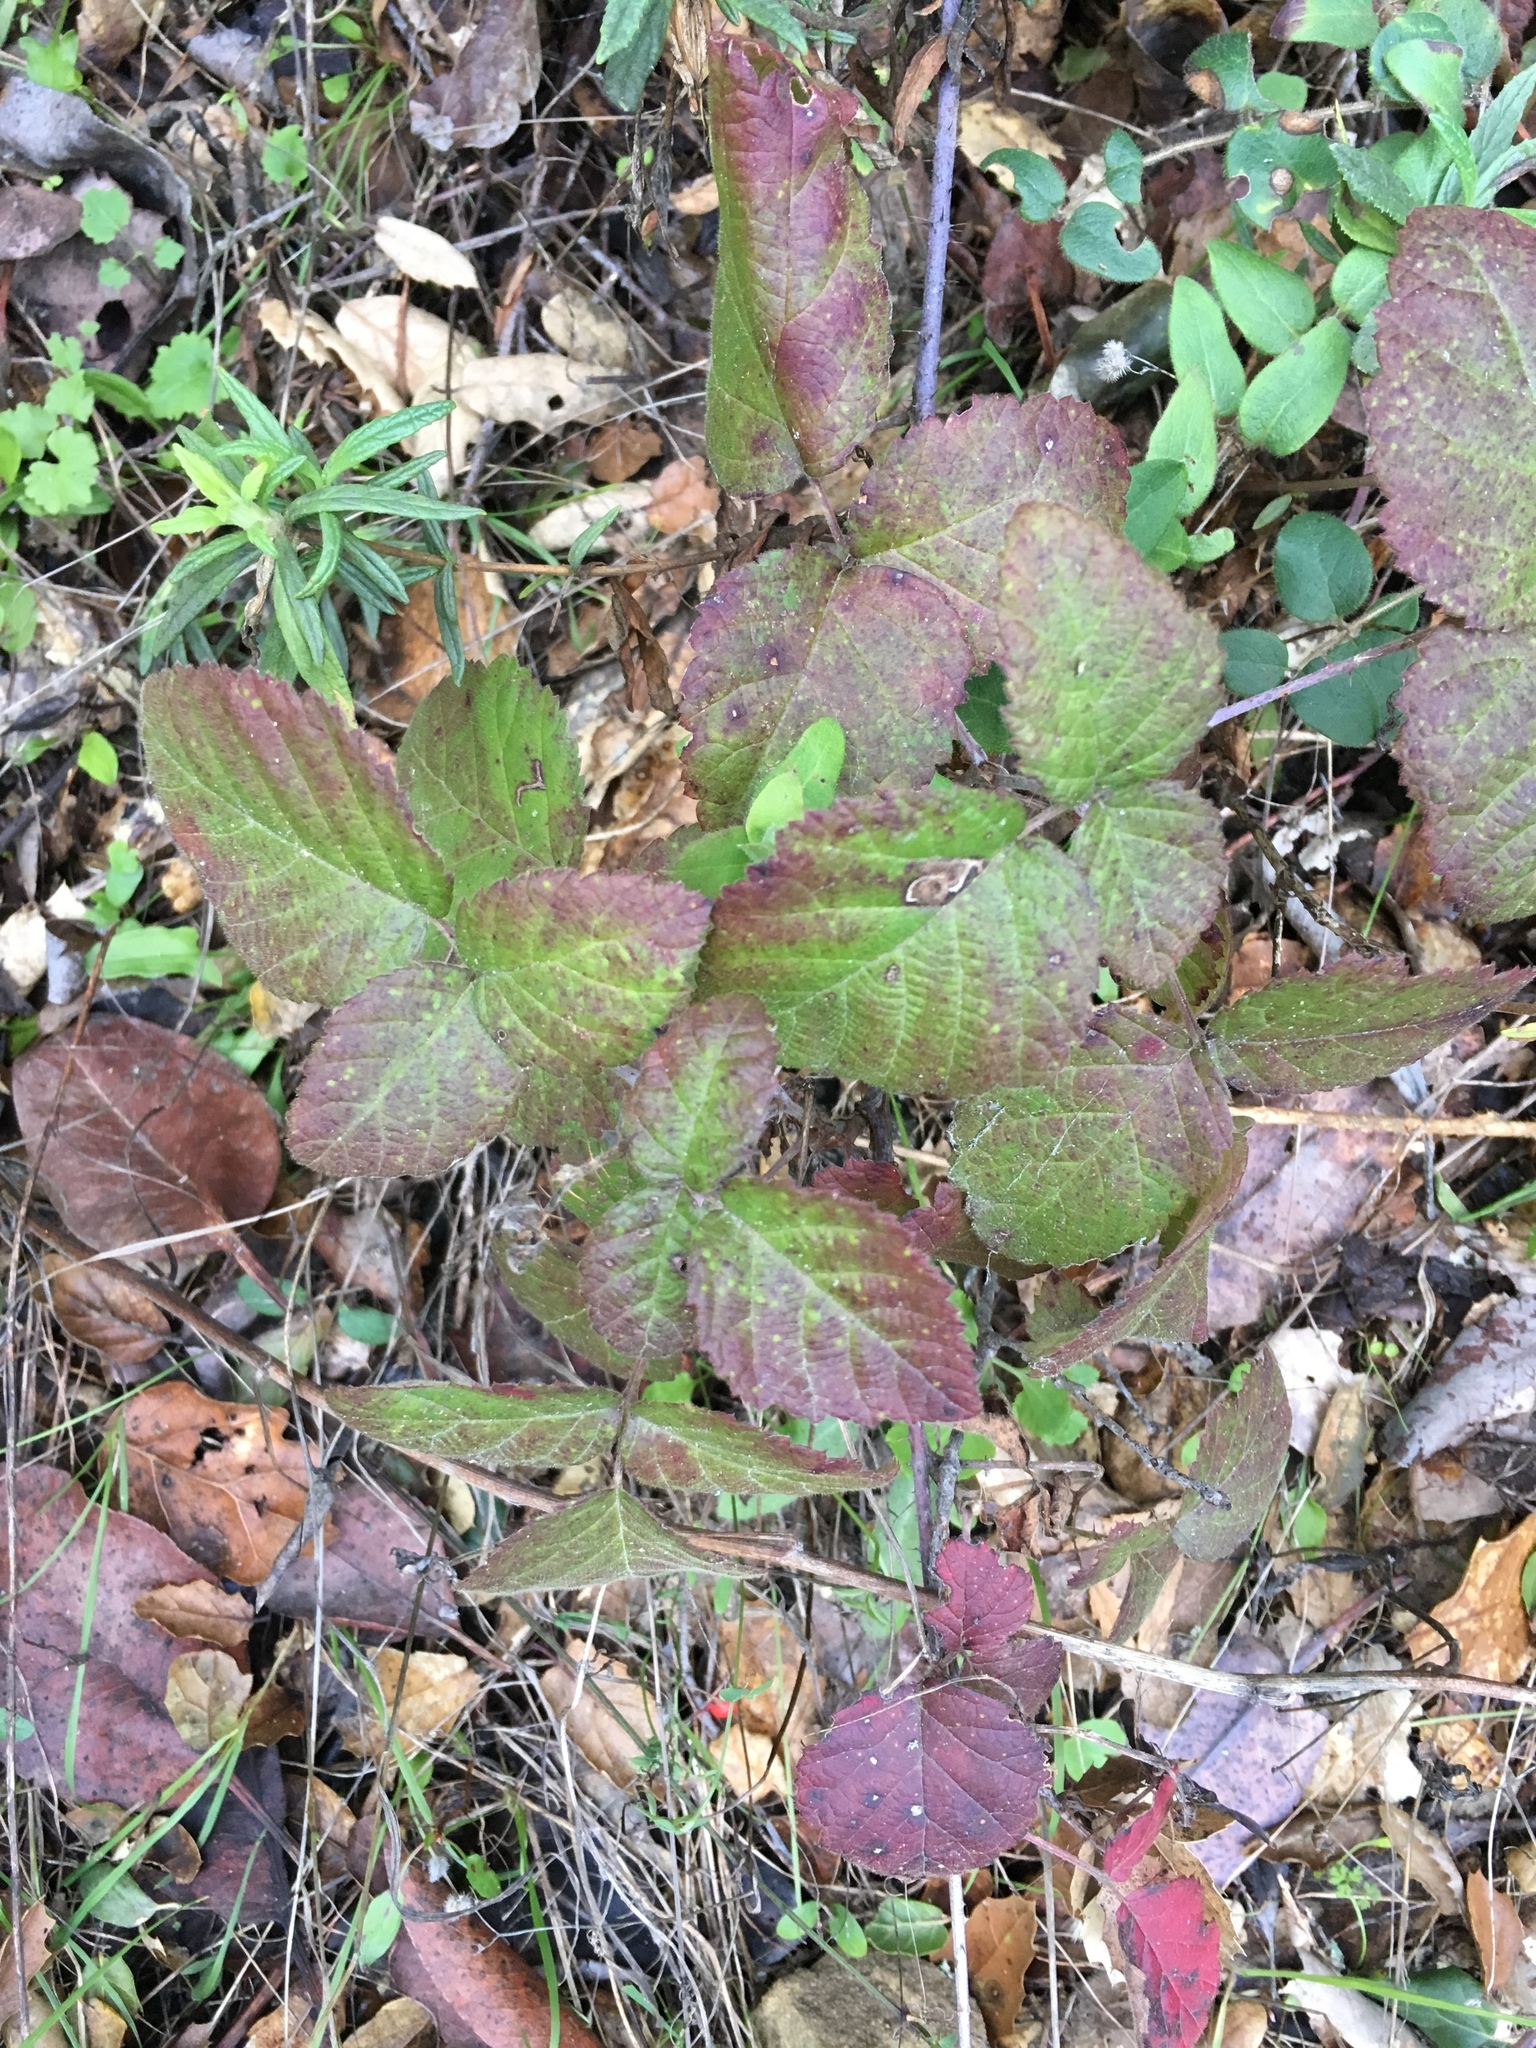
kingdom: Plantae
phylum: Tracheophyta
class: Magnoliopsida
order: Rosales
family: Rosaceae
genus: Rubus
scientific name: Rubus ursinus
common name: Pacific blackberry
